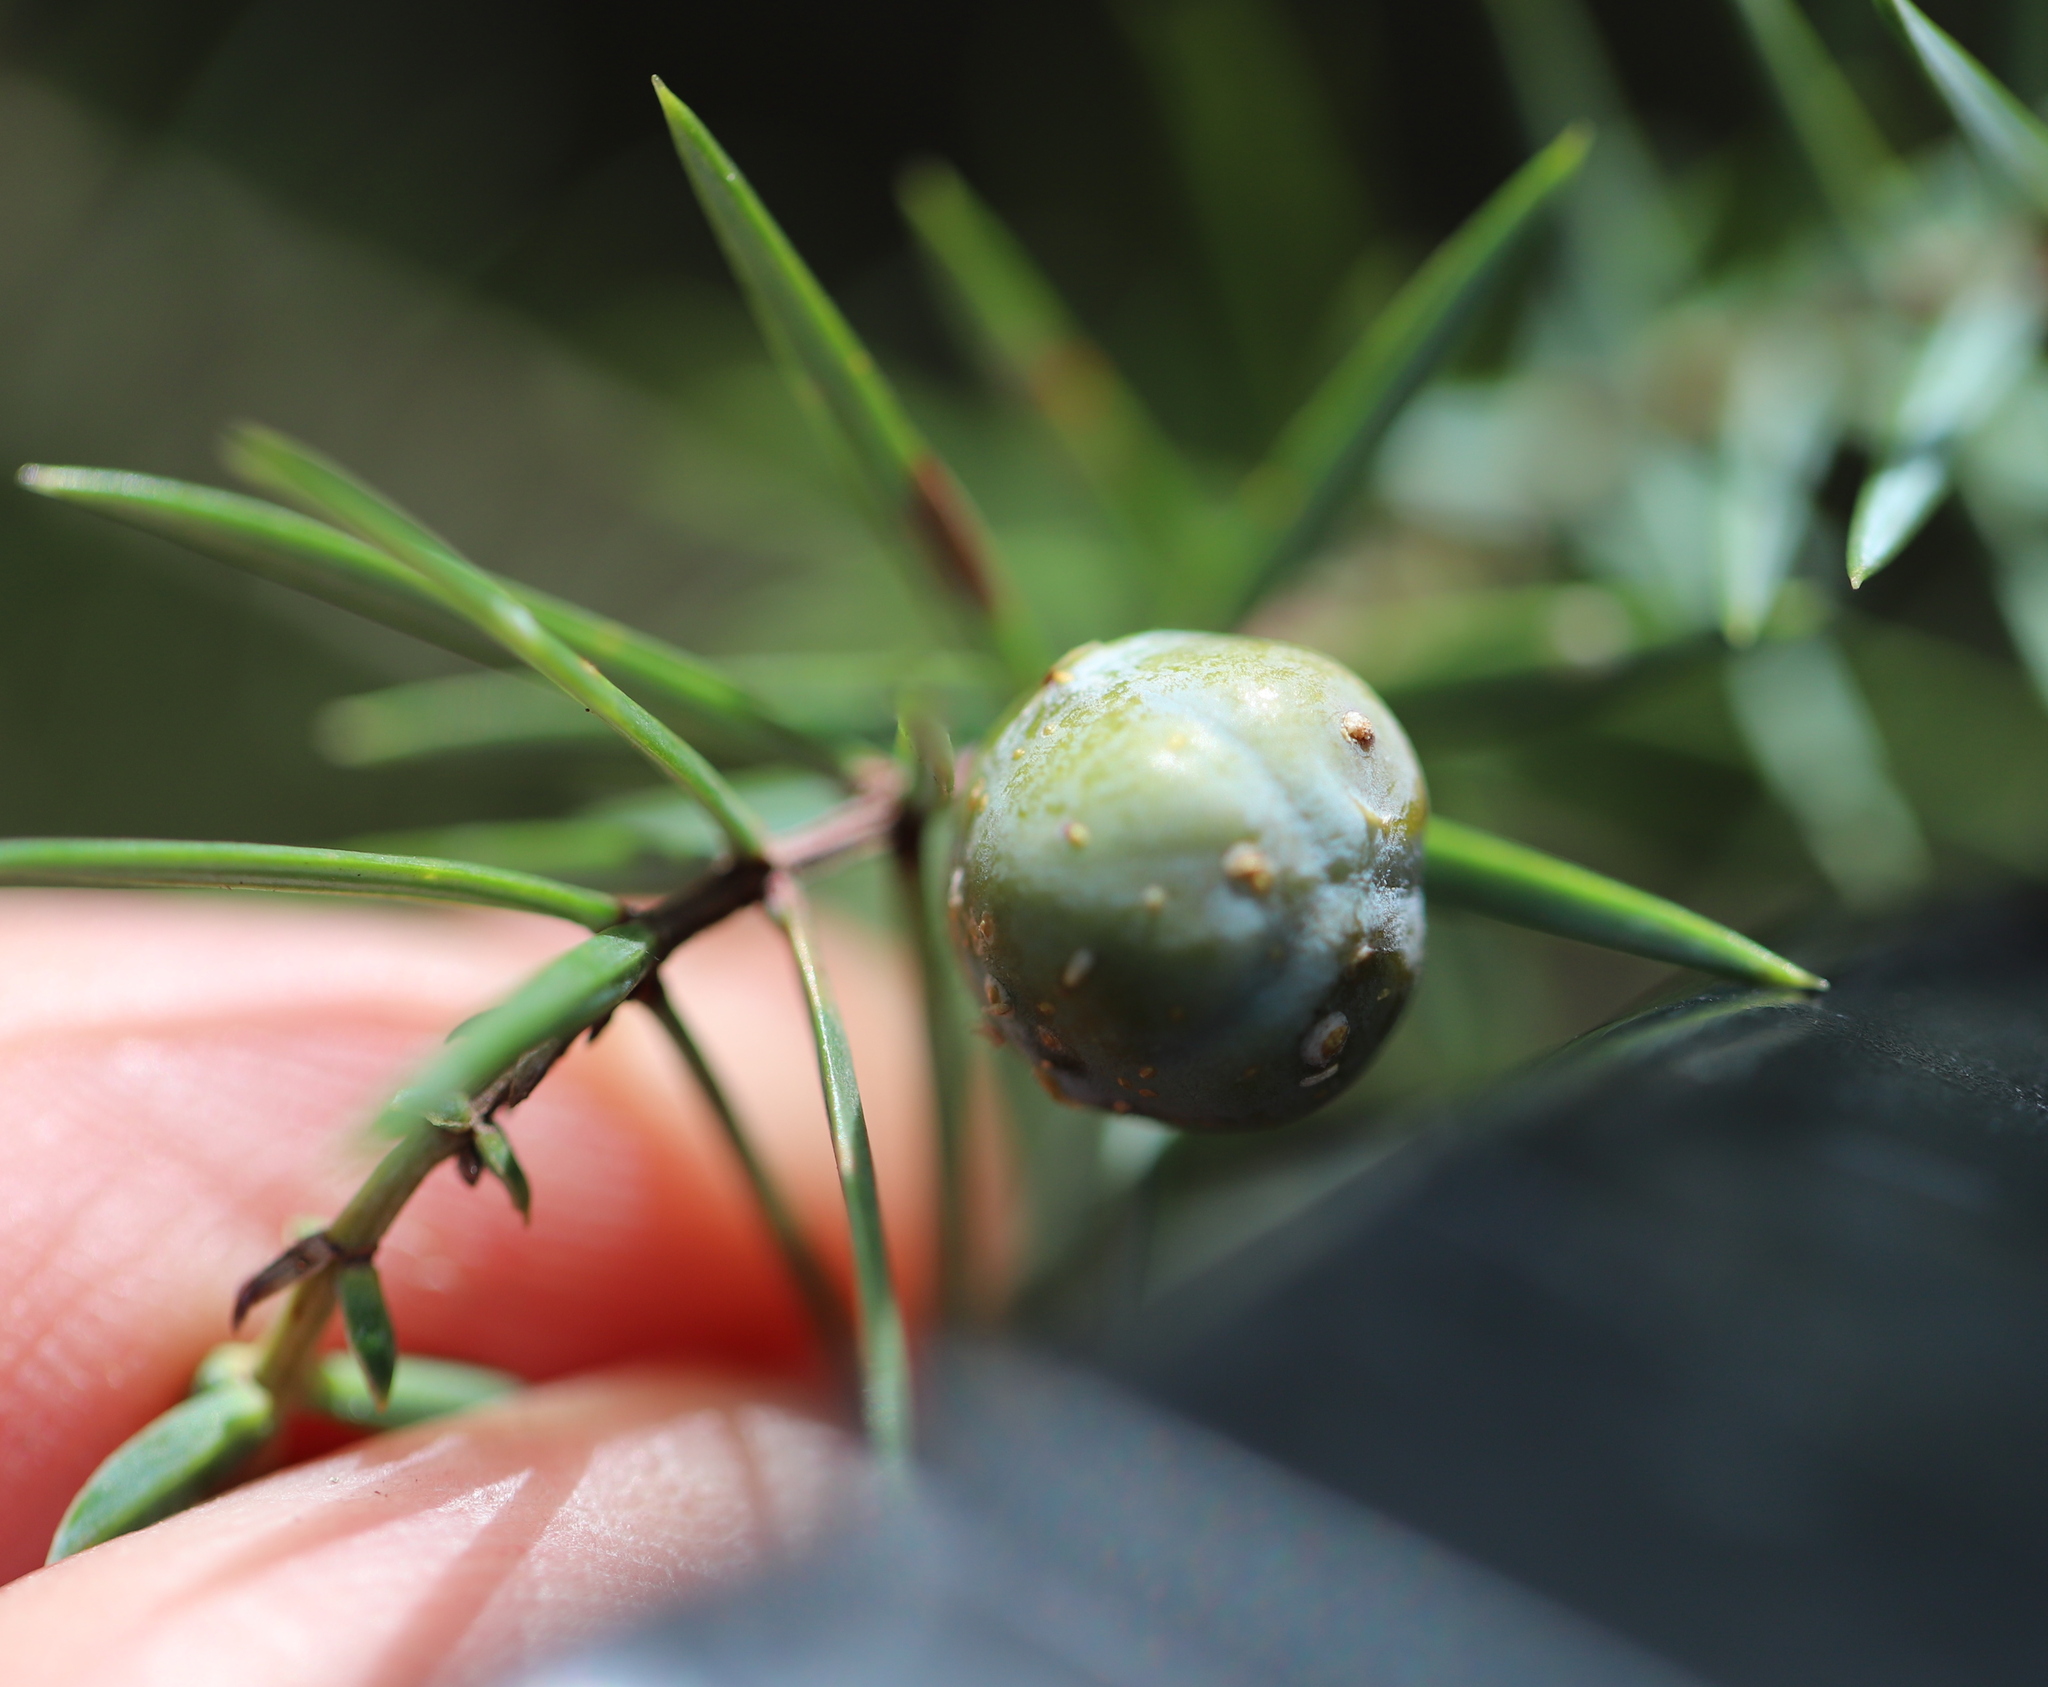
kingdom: Plantae
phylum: Tracheophyta
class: Pinopsida
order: Pinales
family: Cupressaceae
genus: Juniperus
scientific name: Juniperus oxycedrus
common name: Prickly juniper
